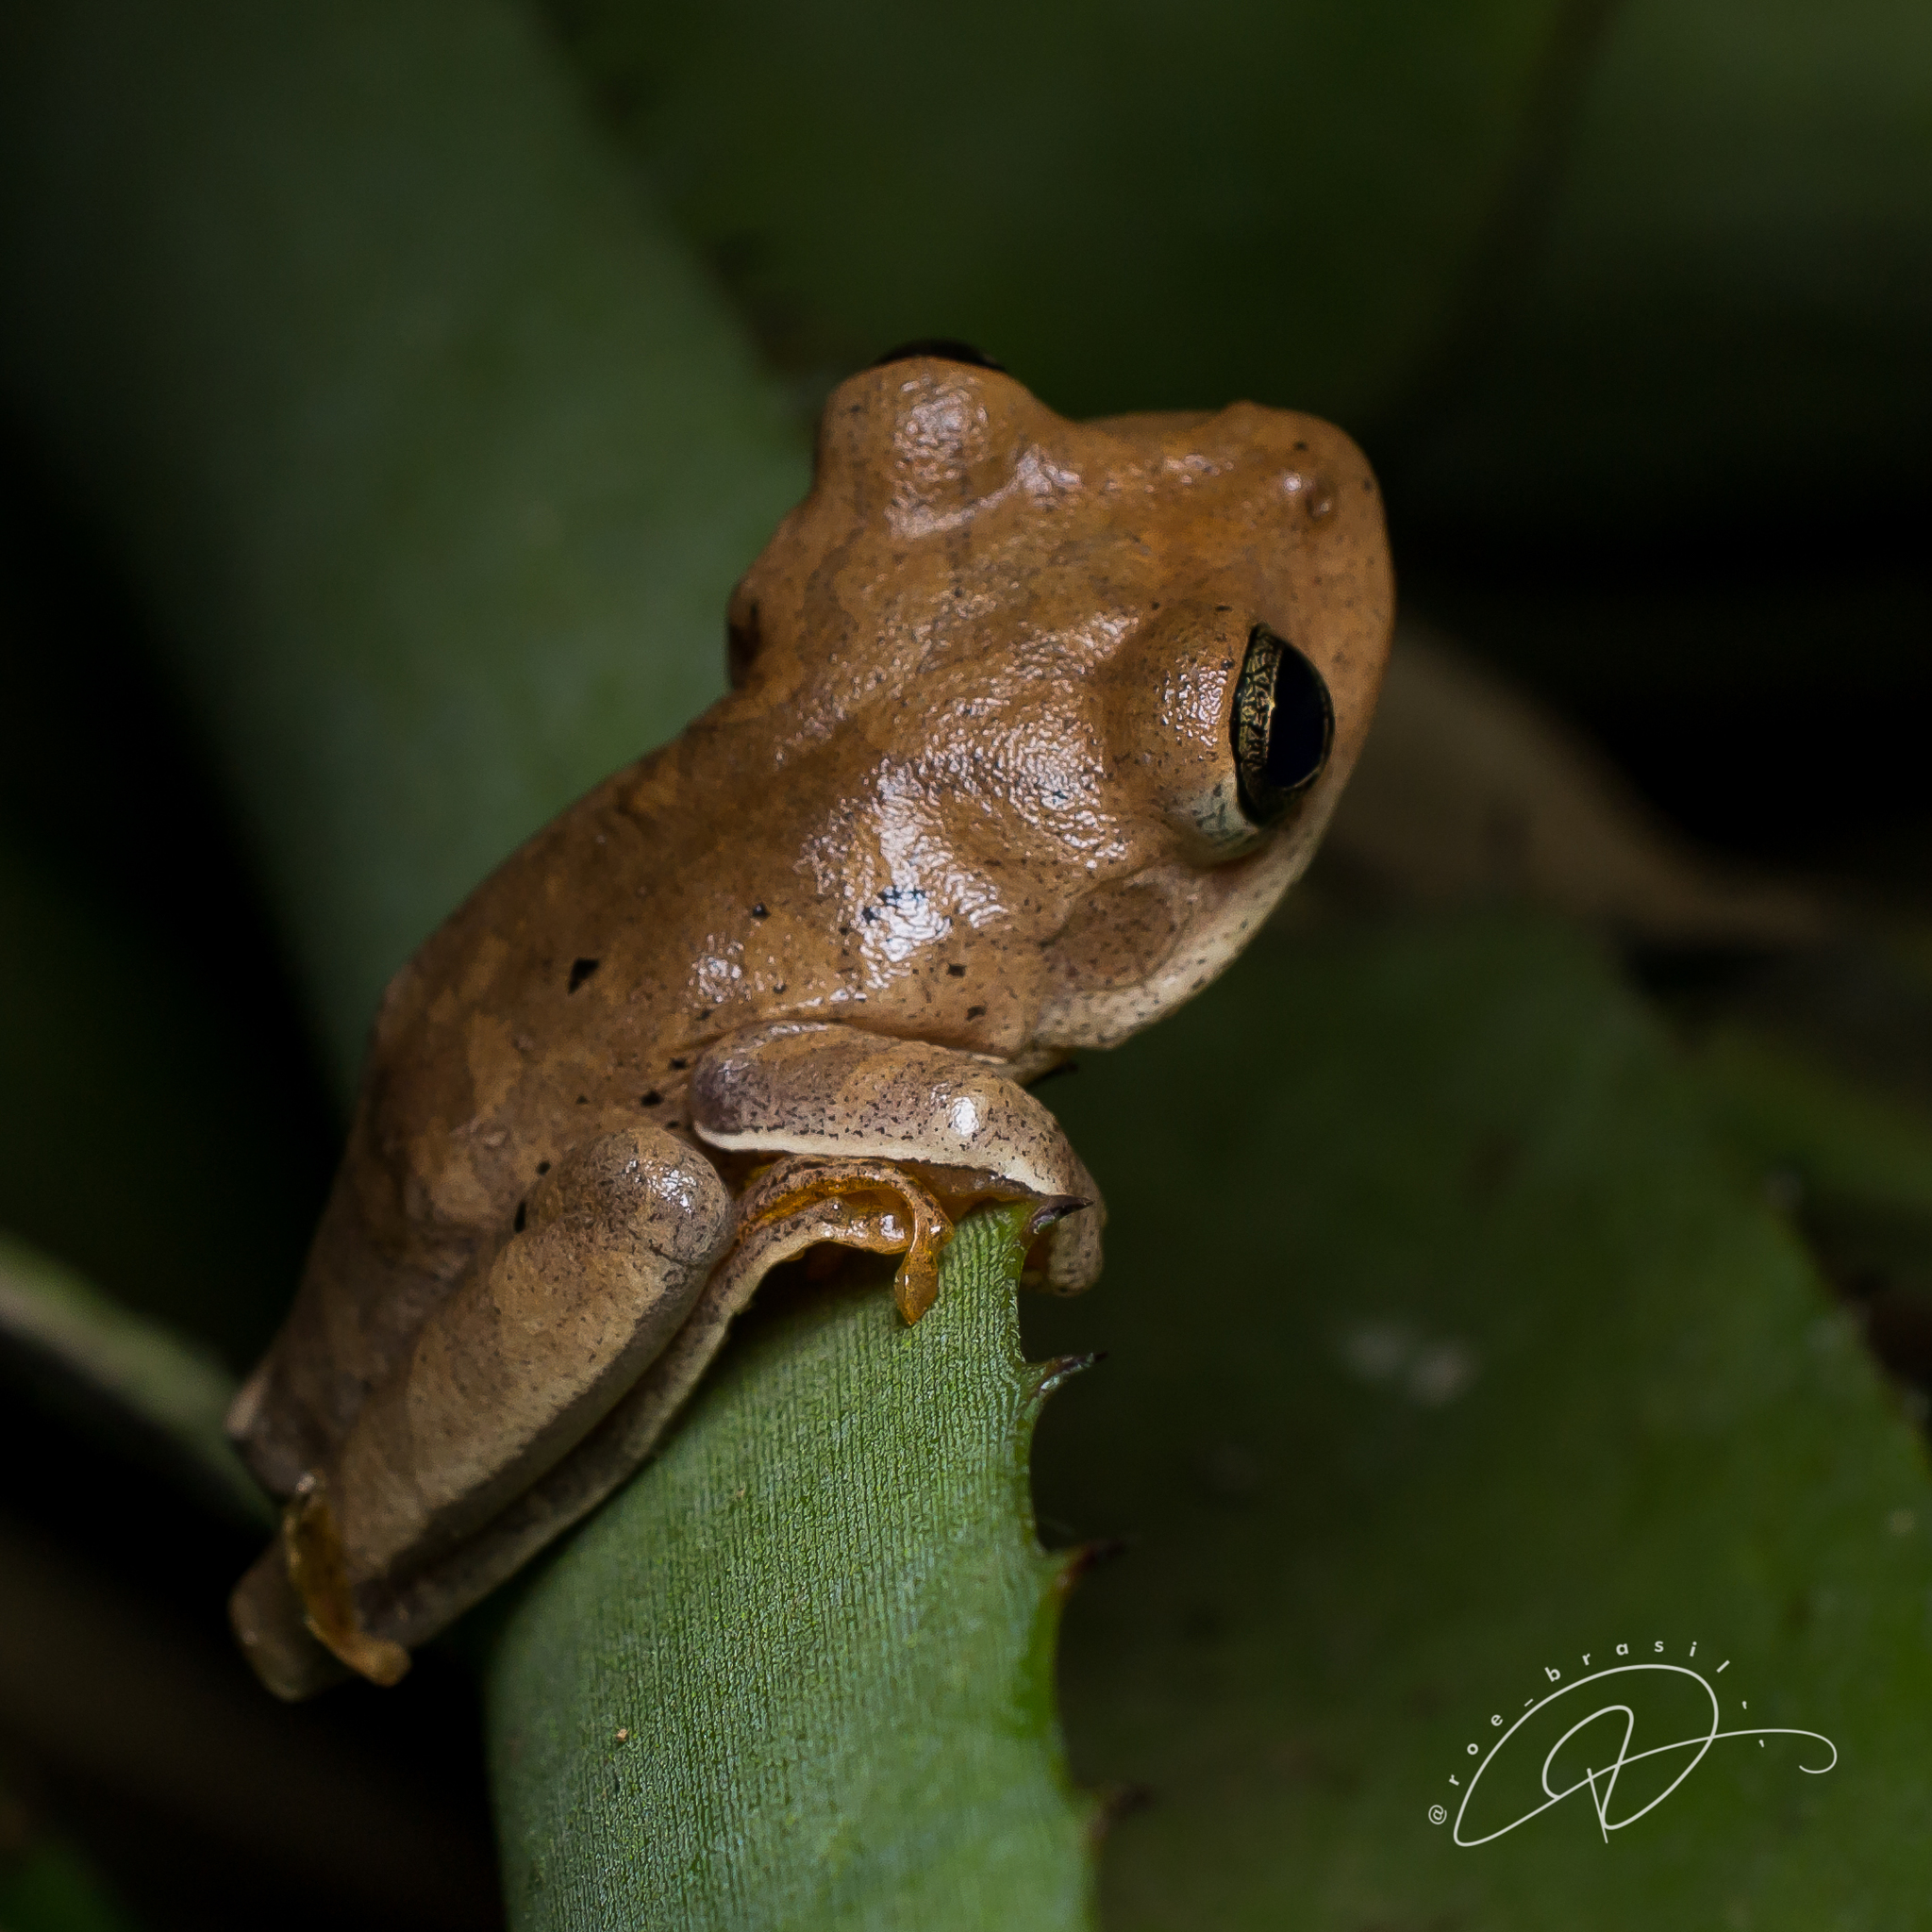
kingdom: Animalia
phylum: Chordata
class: Amphibia
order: Anura
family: Hylidae
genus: Boana
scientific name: Boana faber
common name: Blacksmith tree frog
